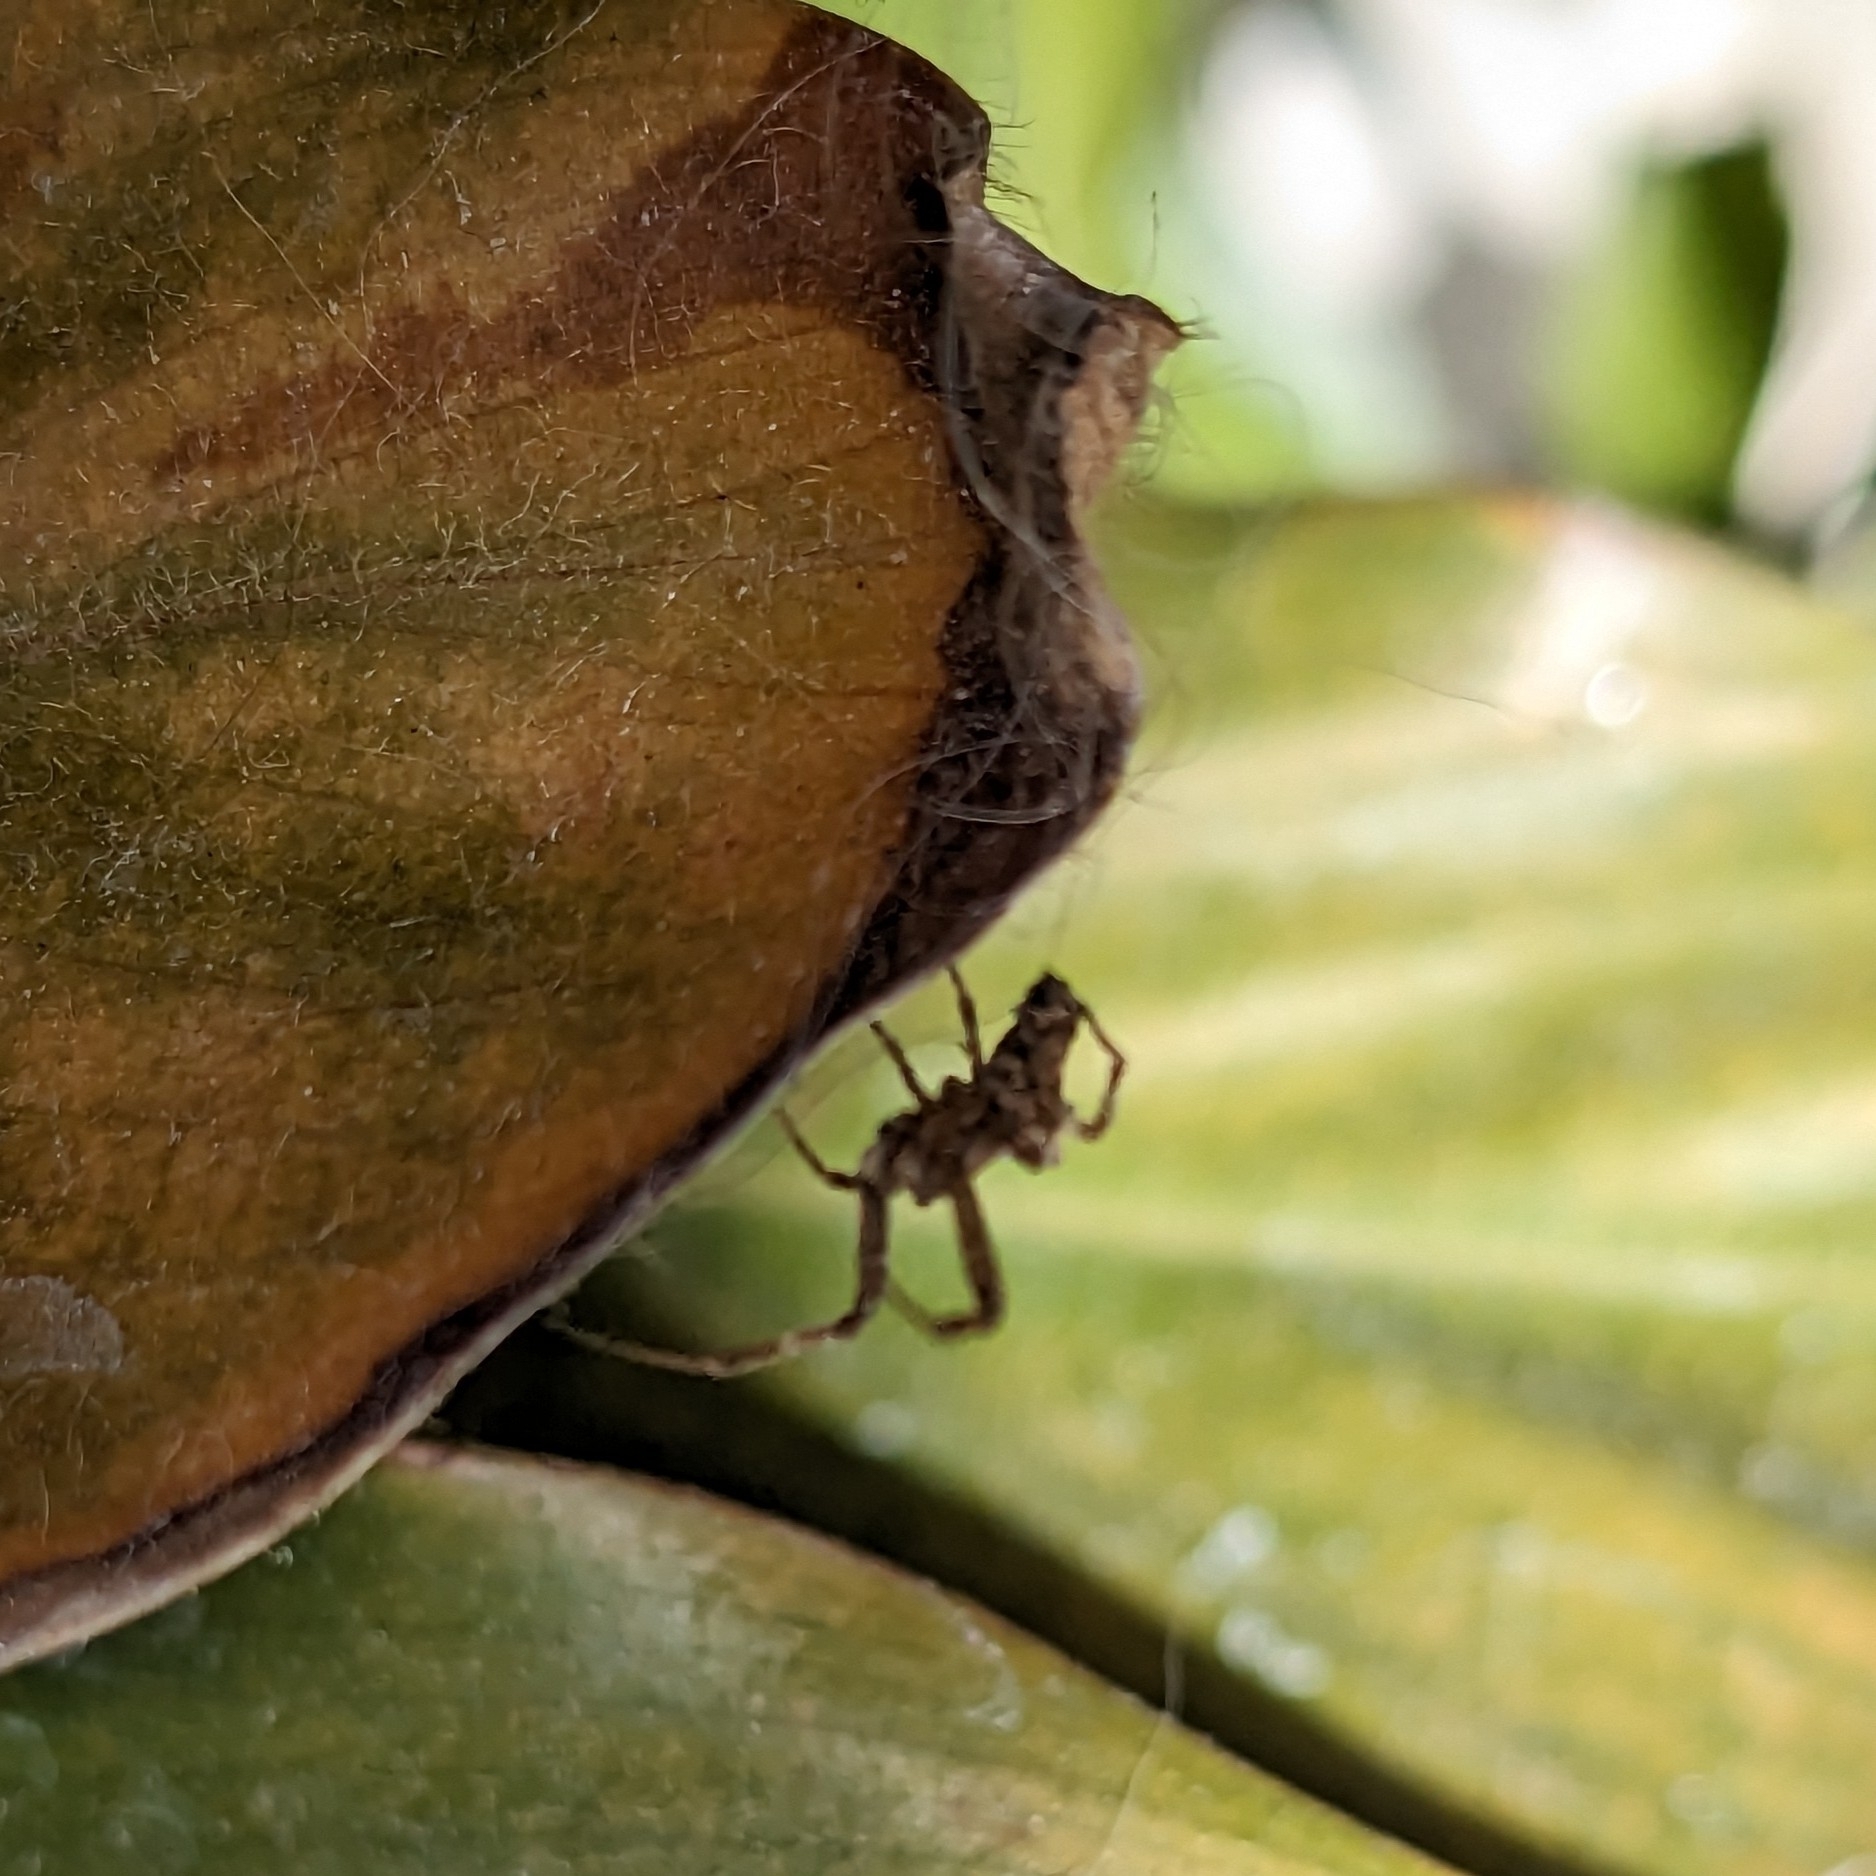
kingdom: Animalia
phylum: Arthropoda
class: Arachnida
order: Araneae
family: Uloboridae
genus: Philoponella
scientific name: Philoponella congregabilis
